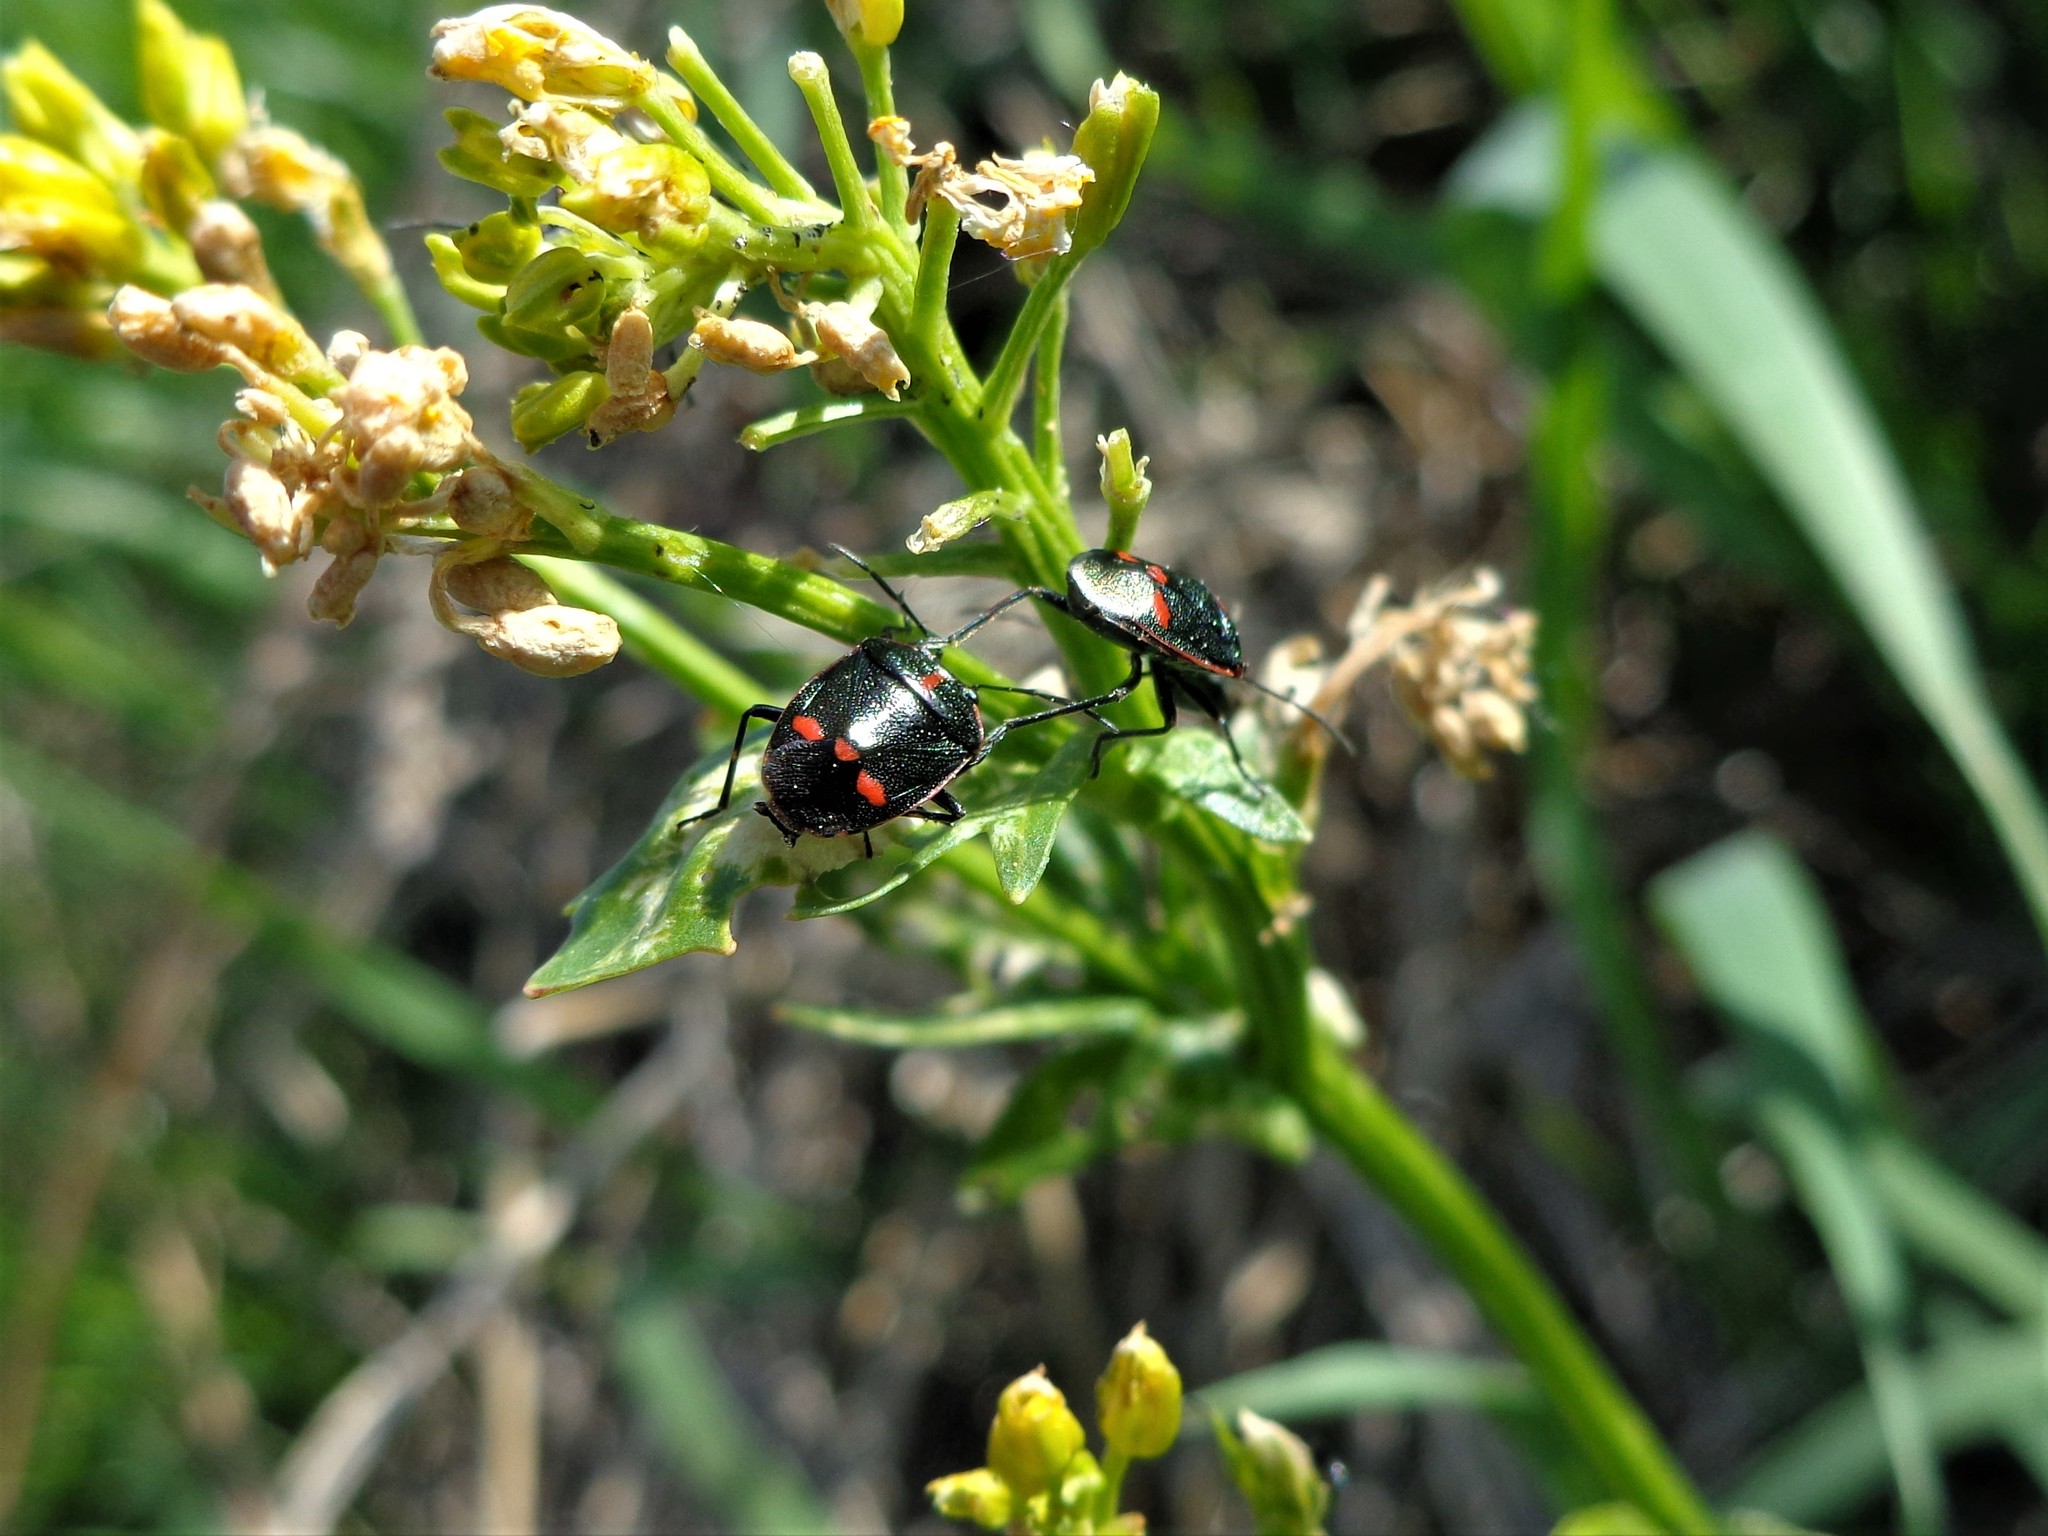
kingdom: Animalia
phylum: Arthropoda
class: Insecta
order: Hemiptera
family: Pentatomidae
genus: Eurydema
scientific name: Eurydema oleracea
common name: Cabbage bug
